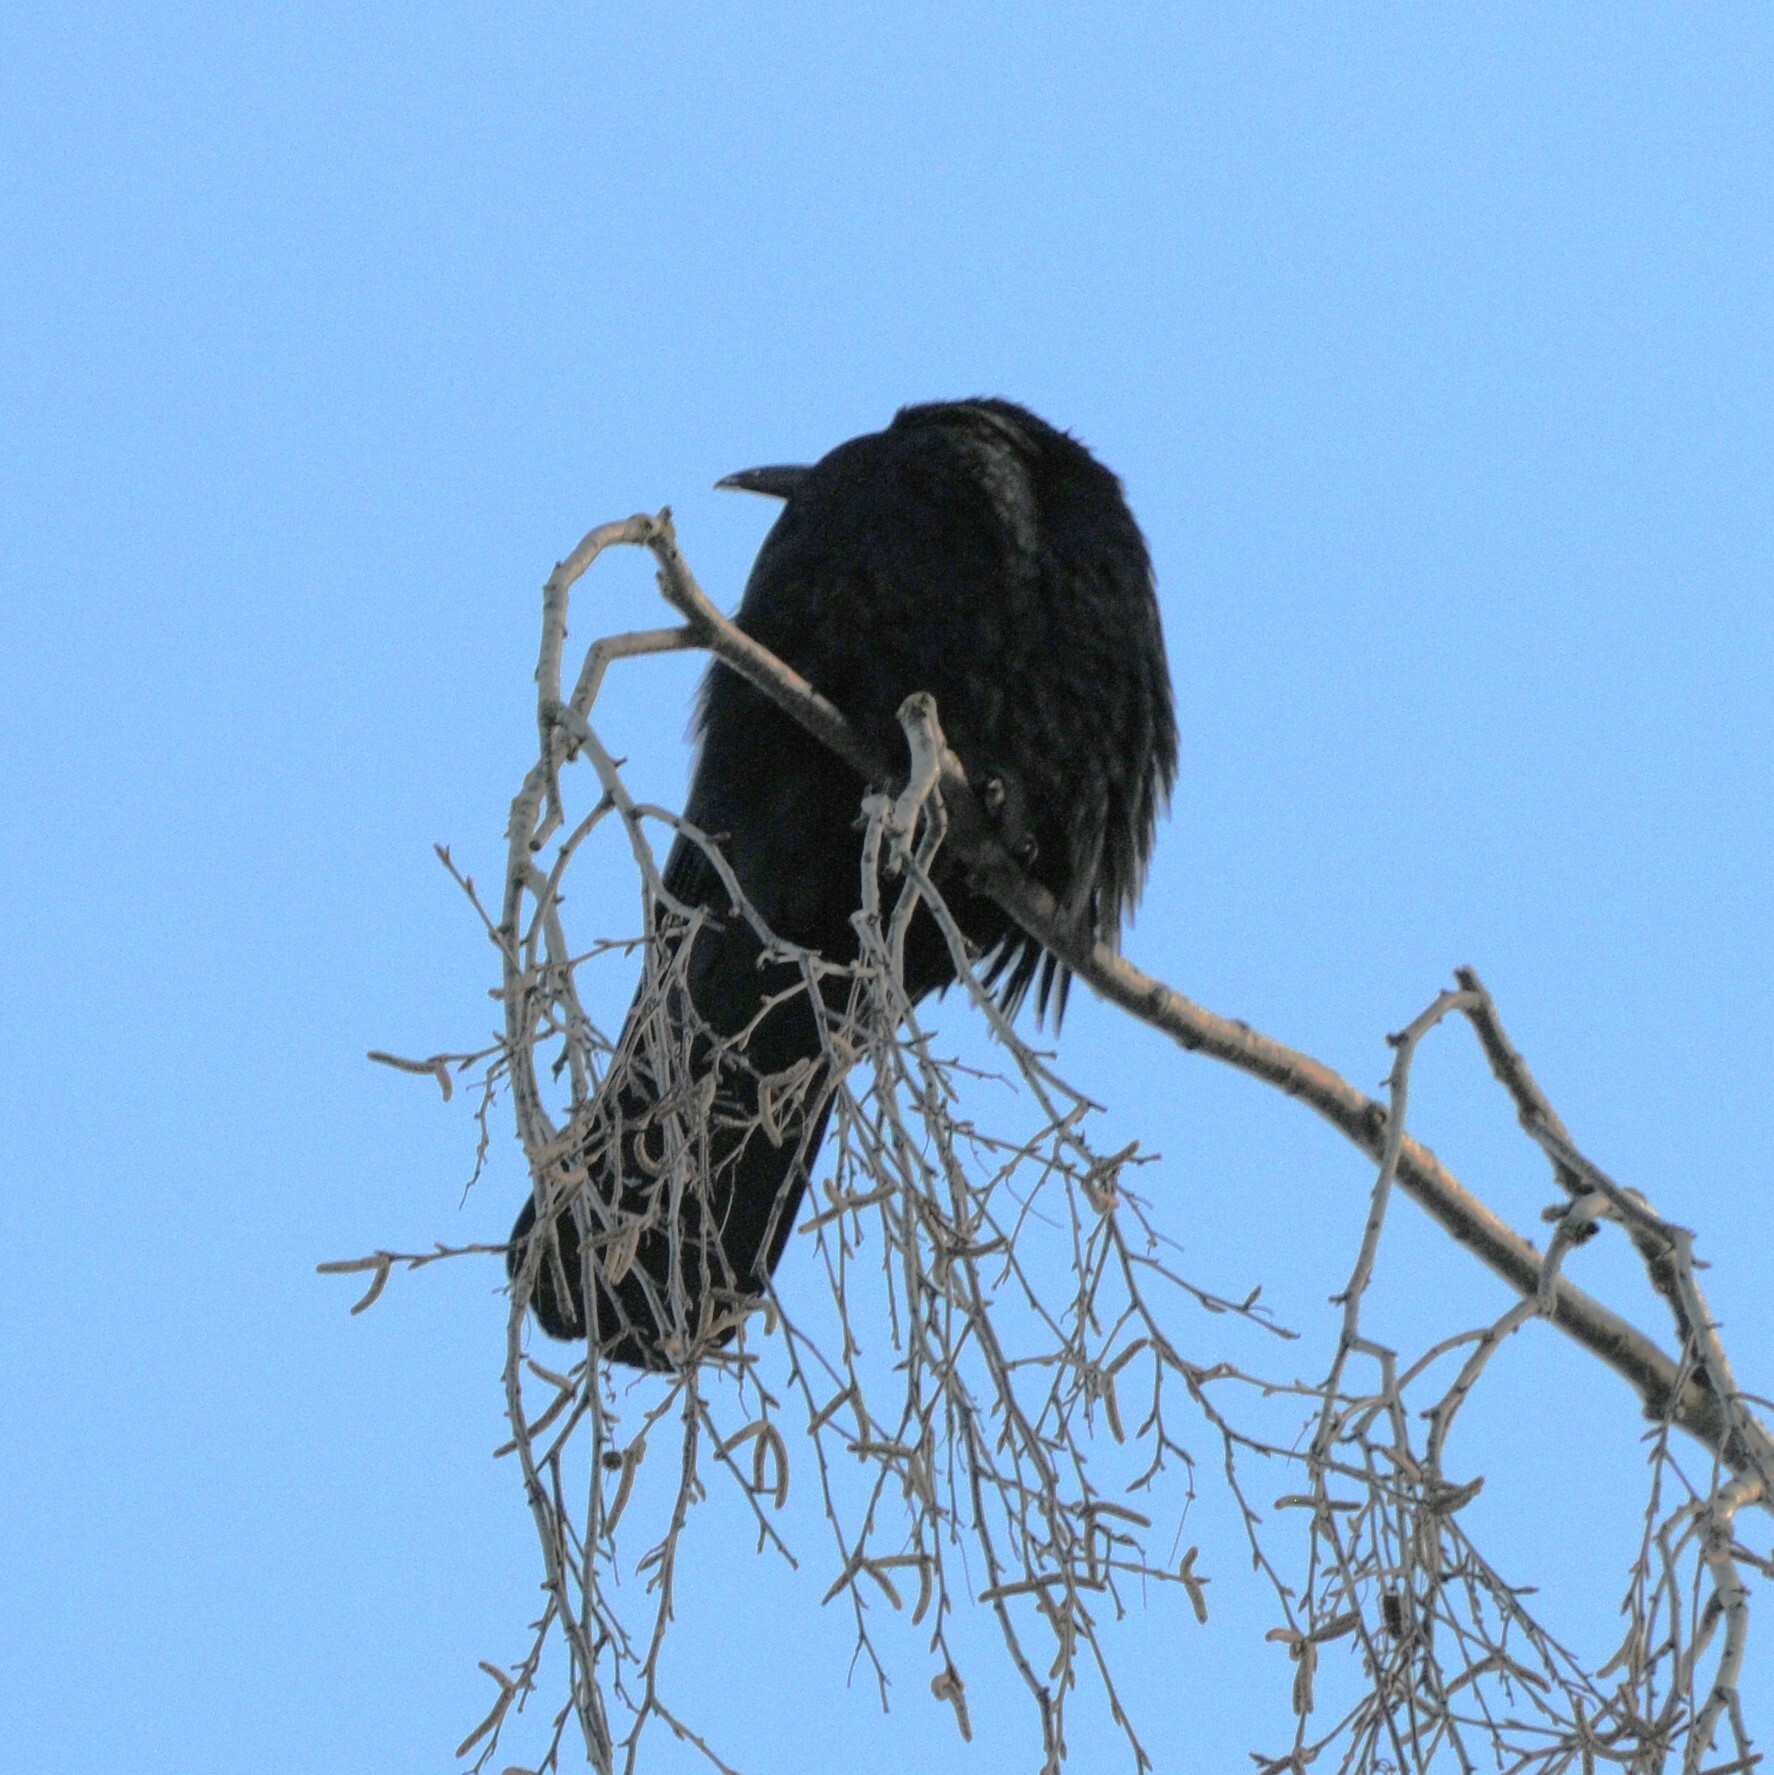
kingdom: Animalia
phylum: Chordata
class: Aves
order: Passeriformes
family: Corvidae
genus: Corvus
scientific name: Corvus frugilegus
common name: Rook
